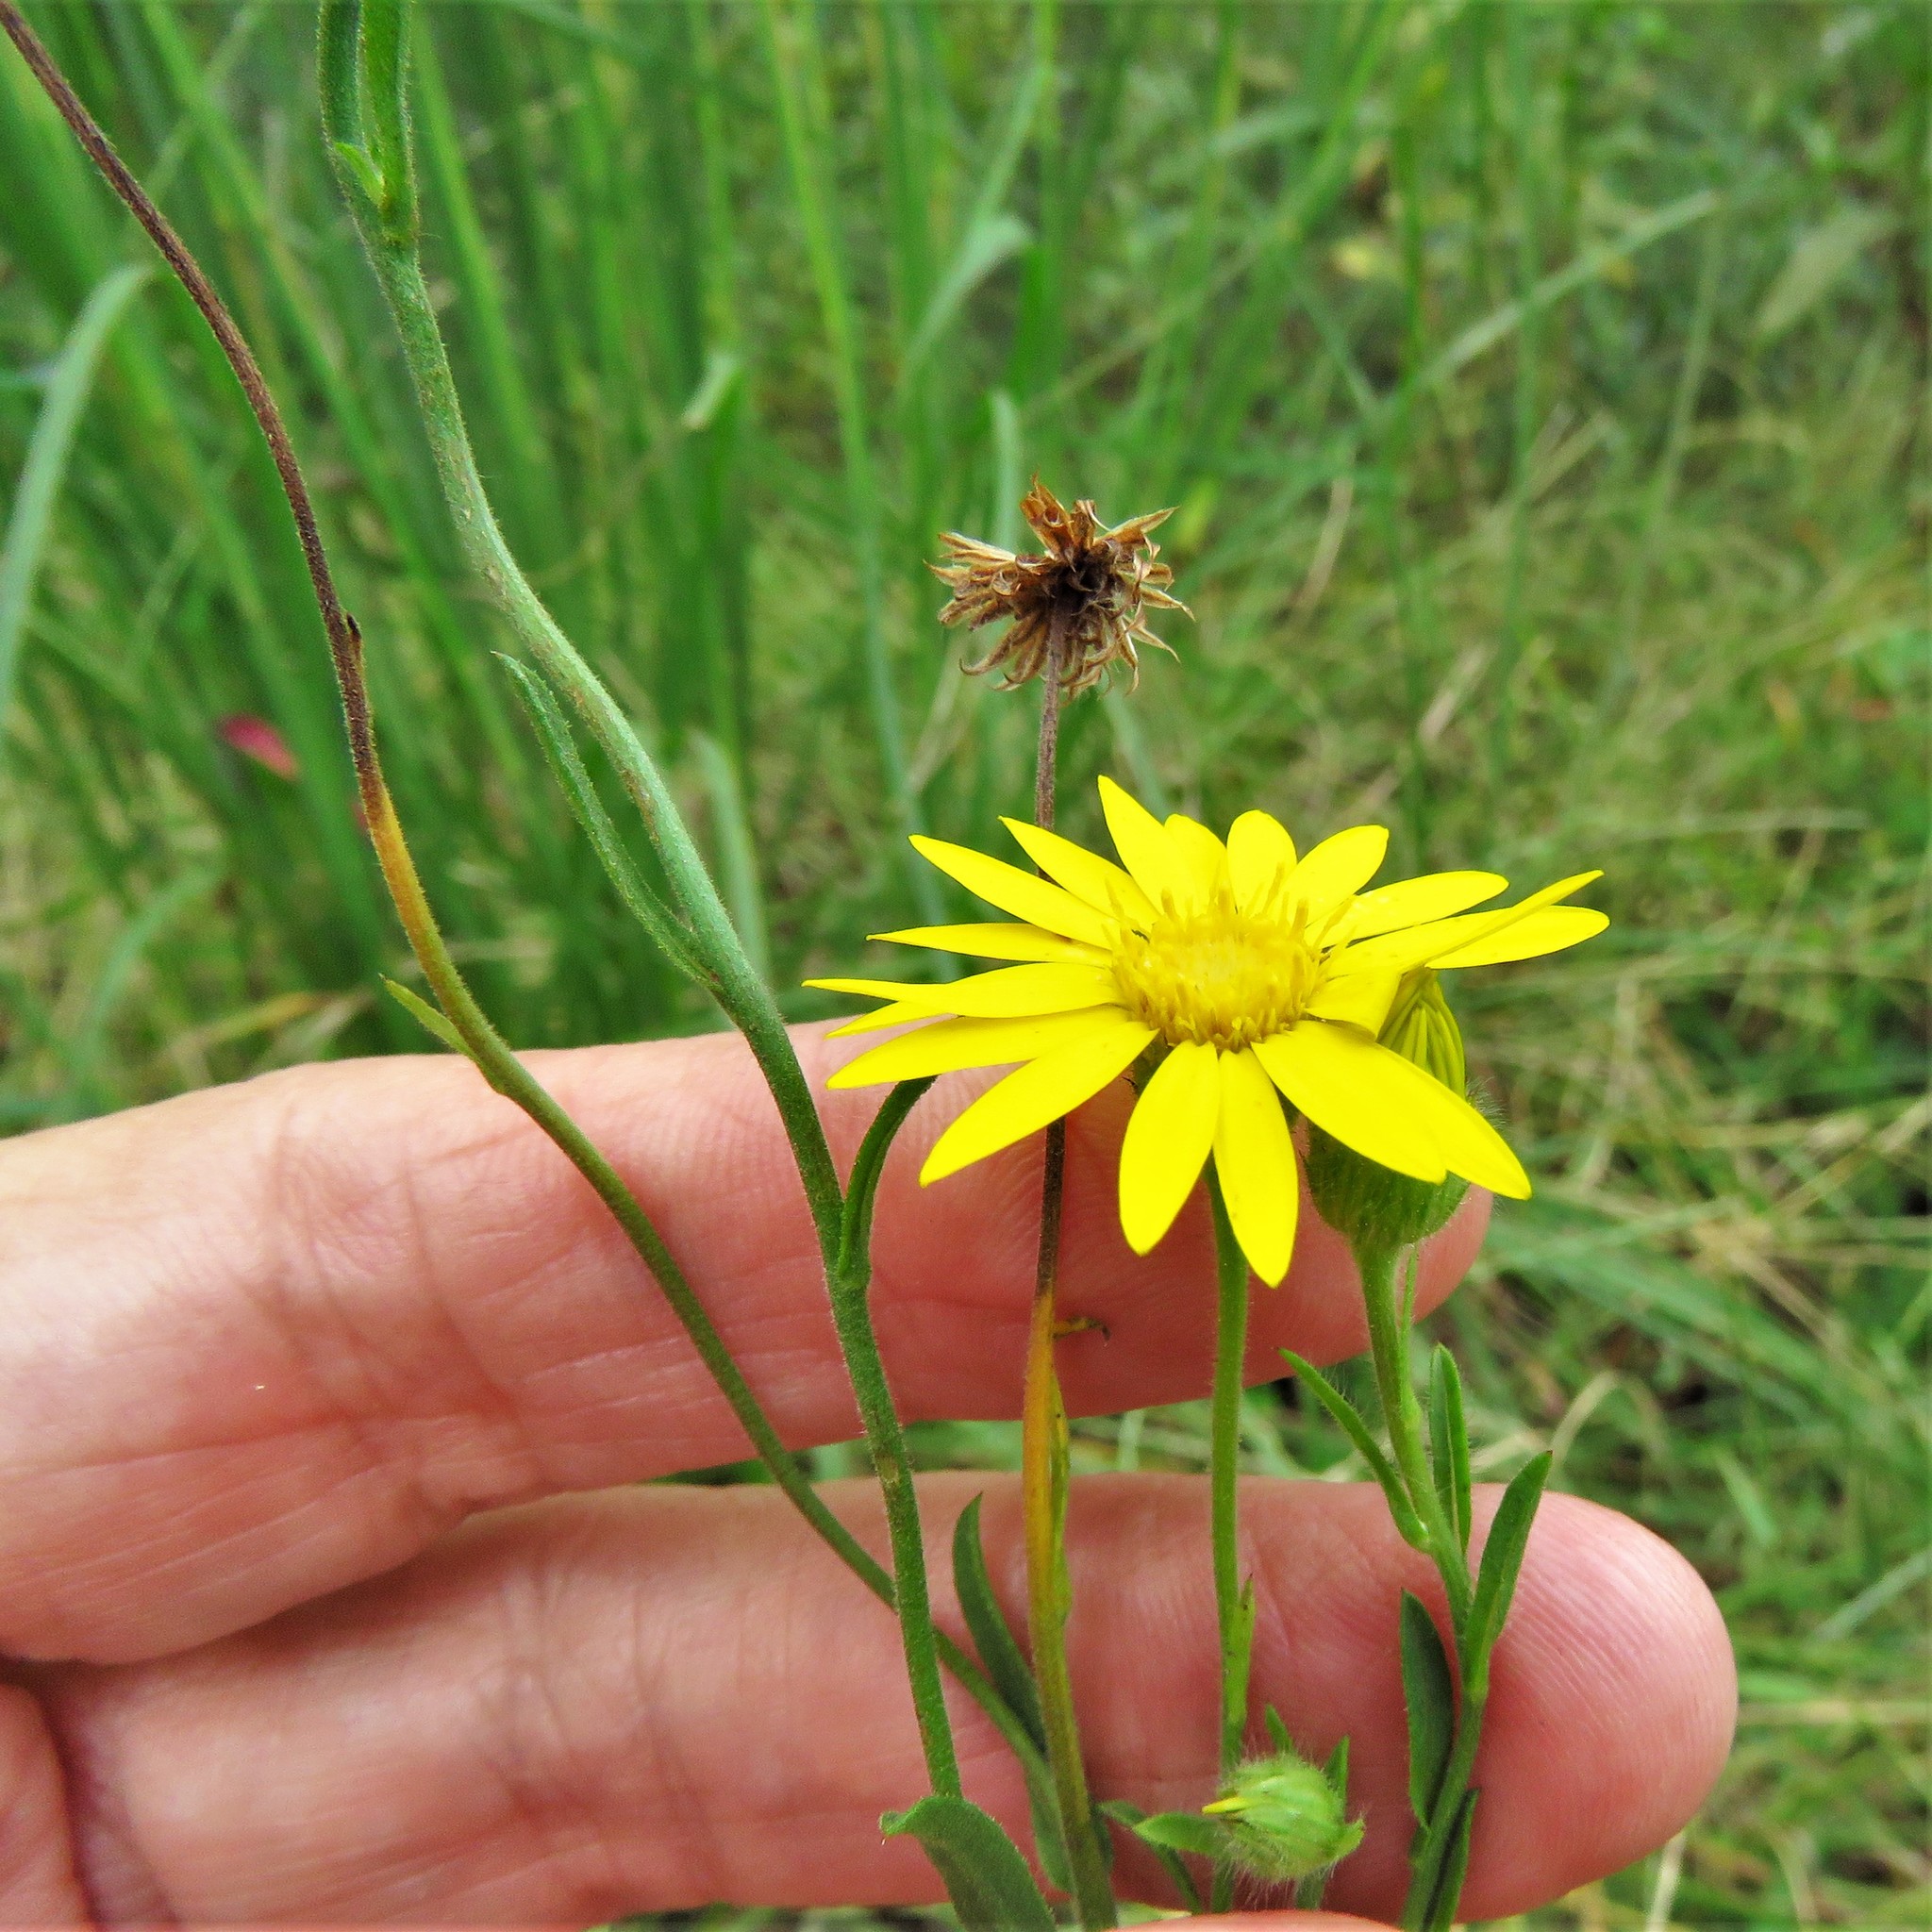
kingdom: Plantae
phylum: Tracheophyta
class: Magnoliopsida
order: Asterales
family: Asteraceae
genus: Bradburia
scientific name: Bradburia pilosa
